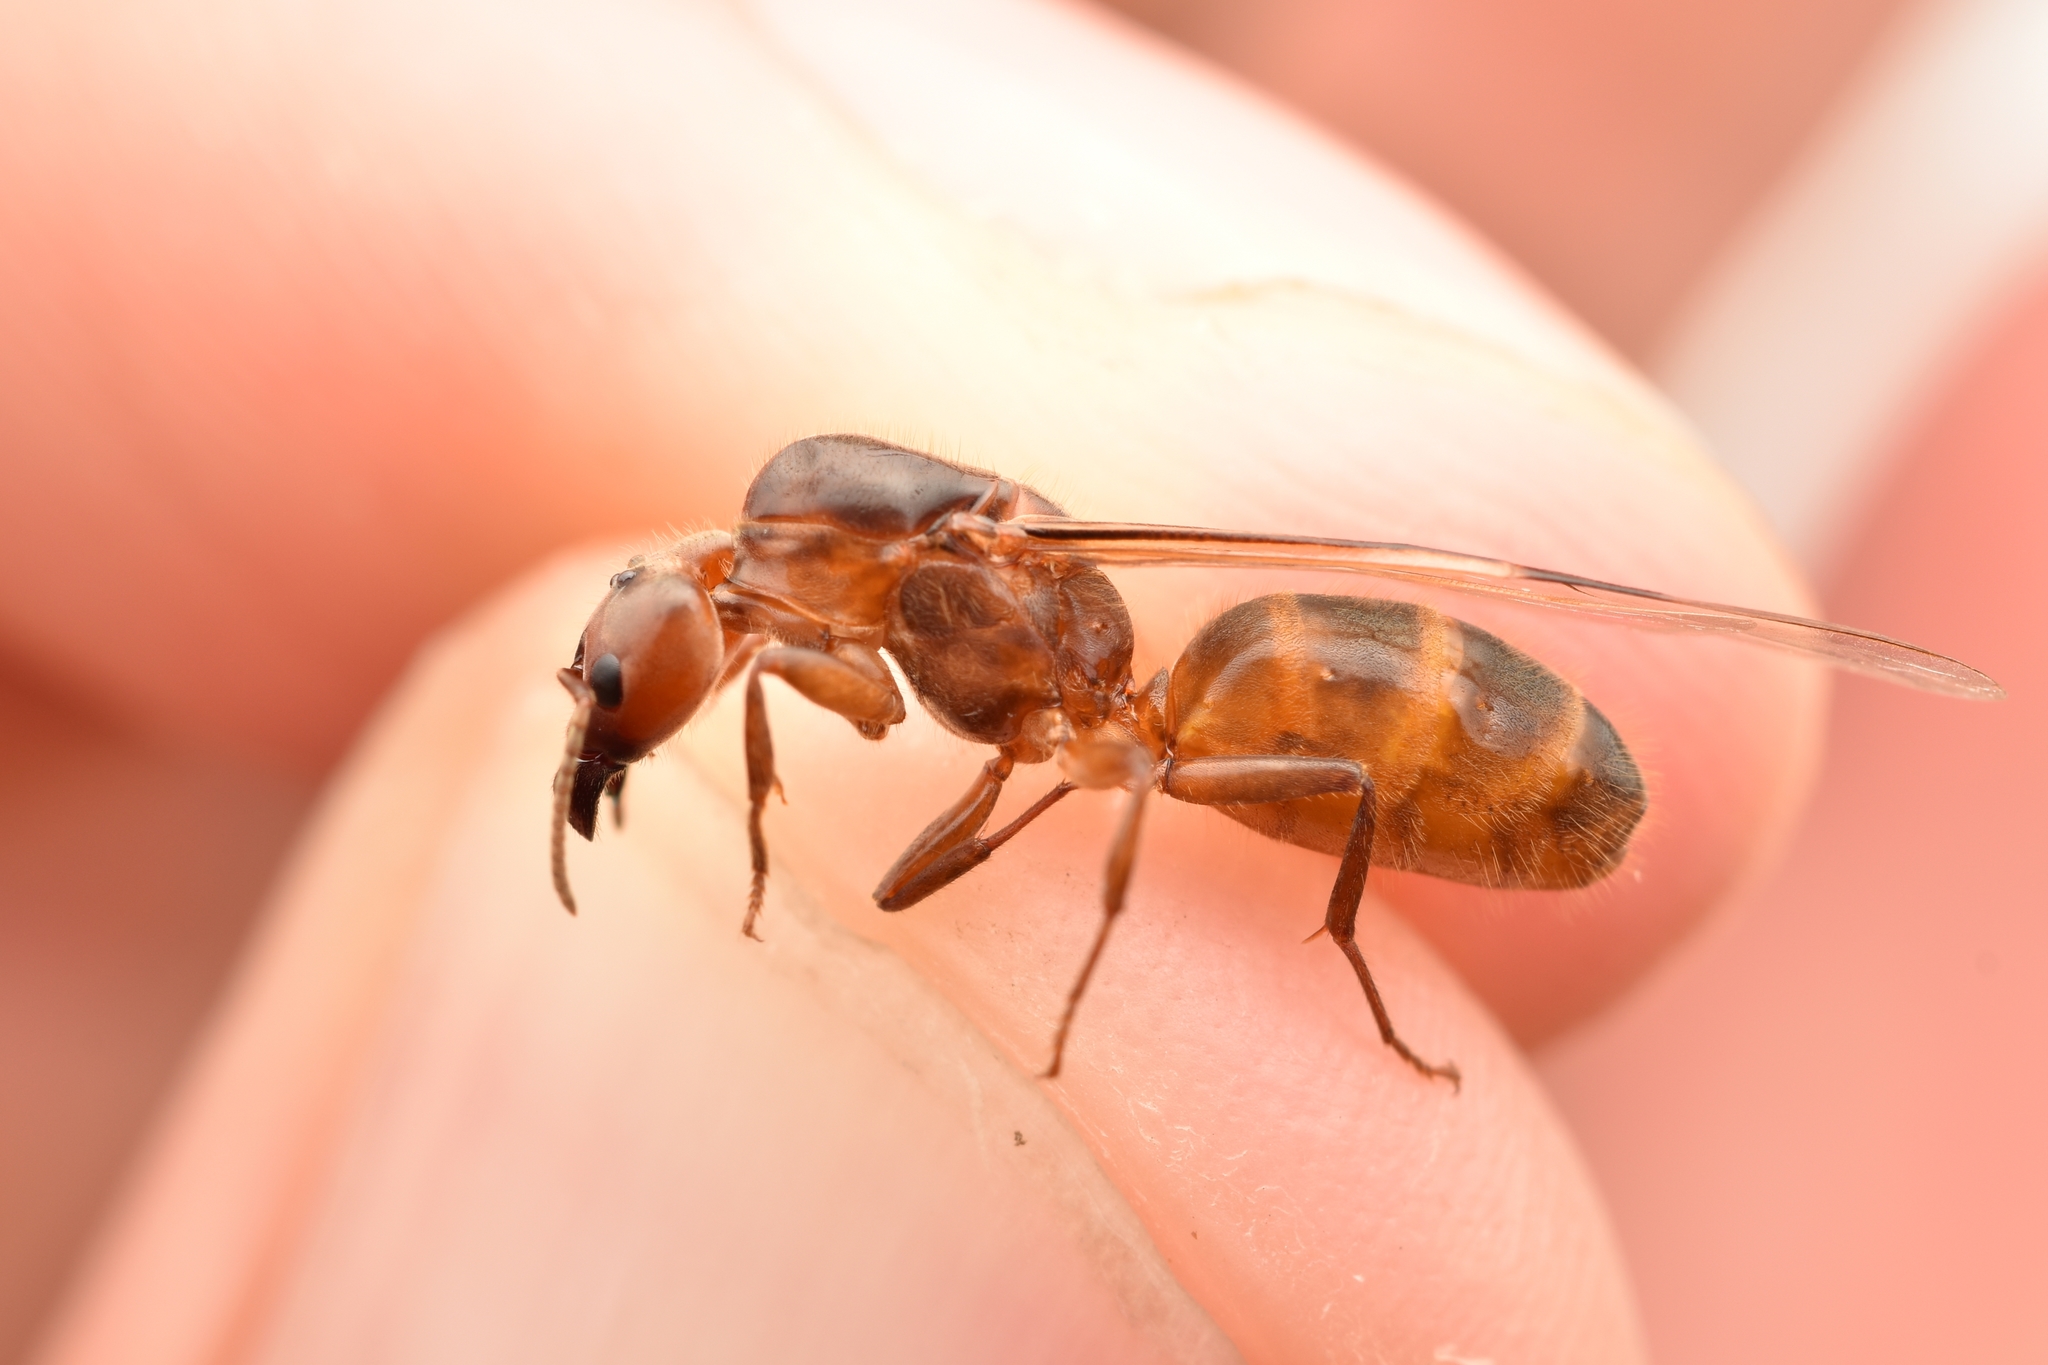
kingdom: Animalia
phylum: Arthropoda
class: Insecta
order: Hymenoptera
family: Formicidae
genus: Azteca
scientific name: Azteca instabilis
